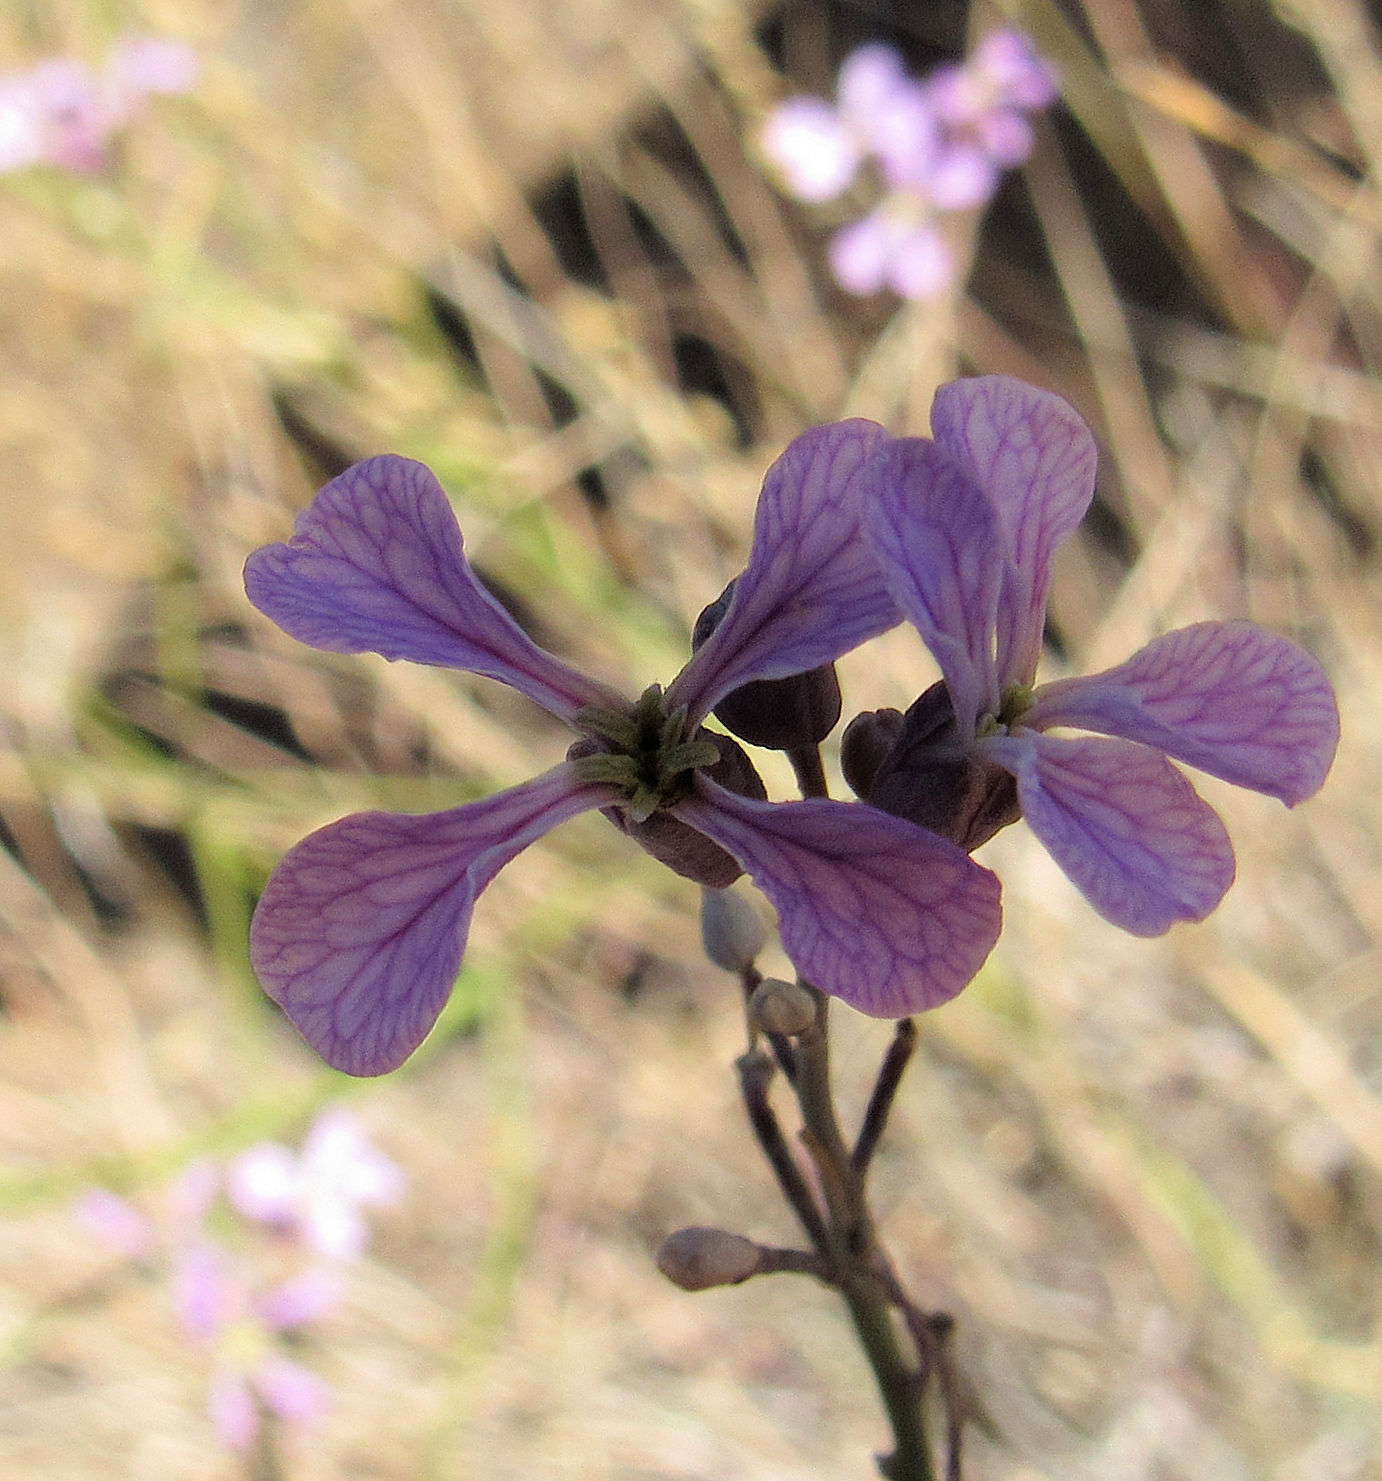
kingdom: Plantae
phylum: Tracheophyta
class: Magnoliopsida
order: Brassicales
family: Brassicaceae
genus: Hesperidanthus
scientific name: Hesperidanthus linearifolius
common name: Slim-leaf plains mustard
